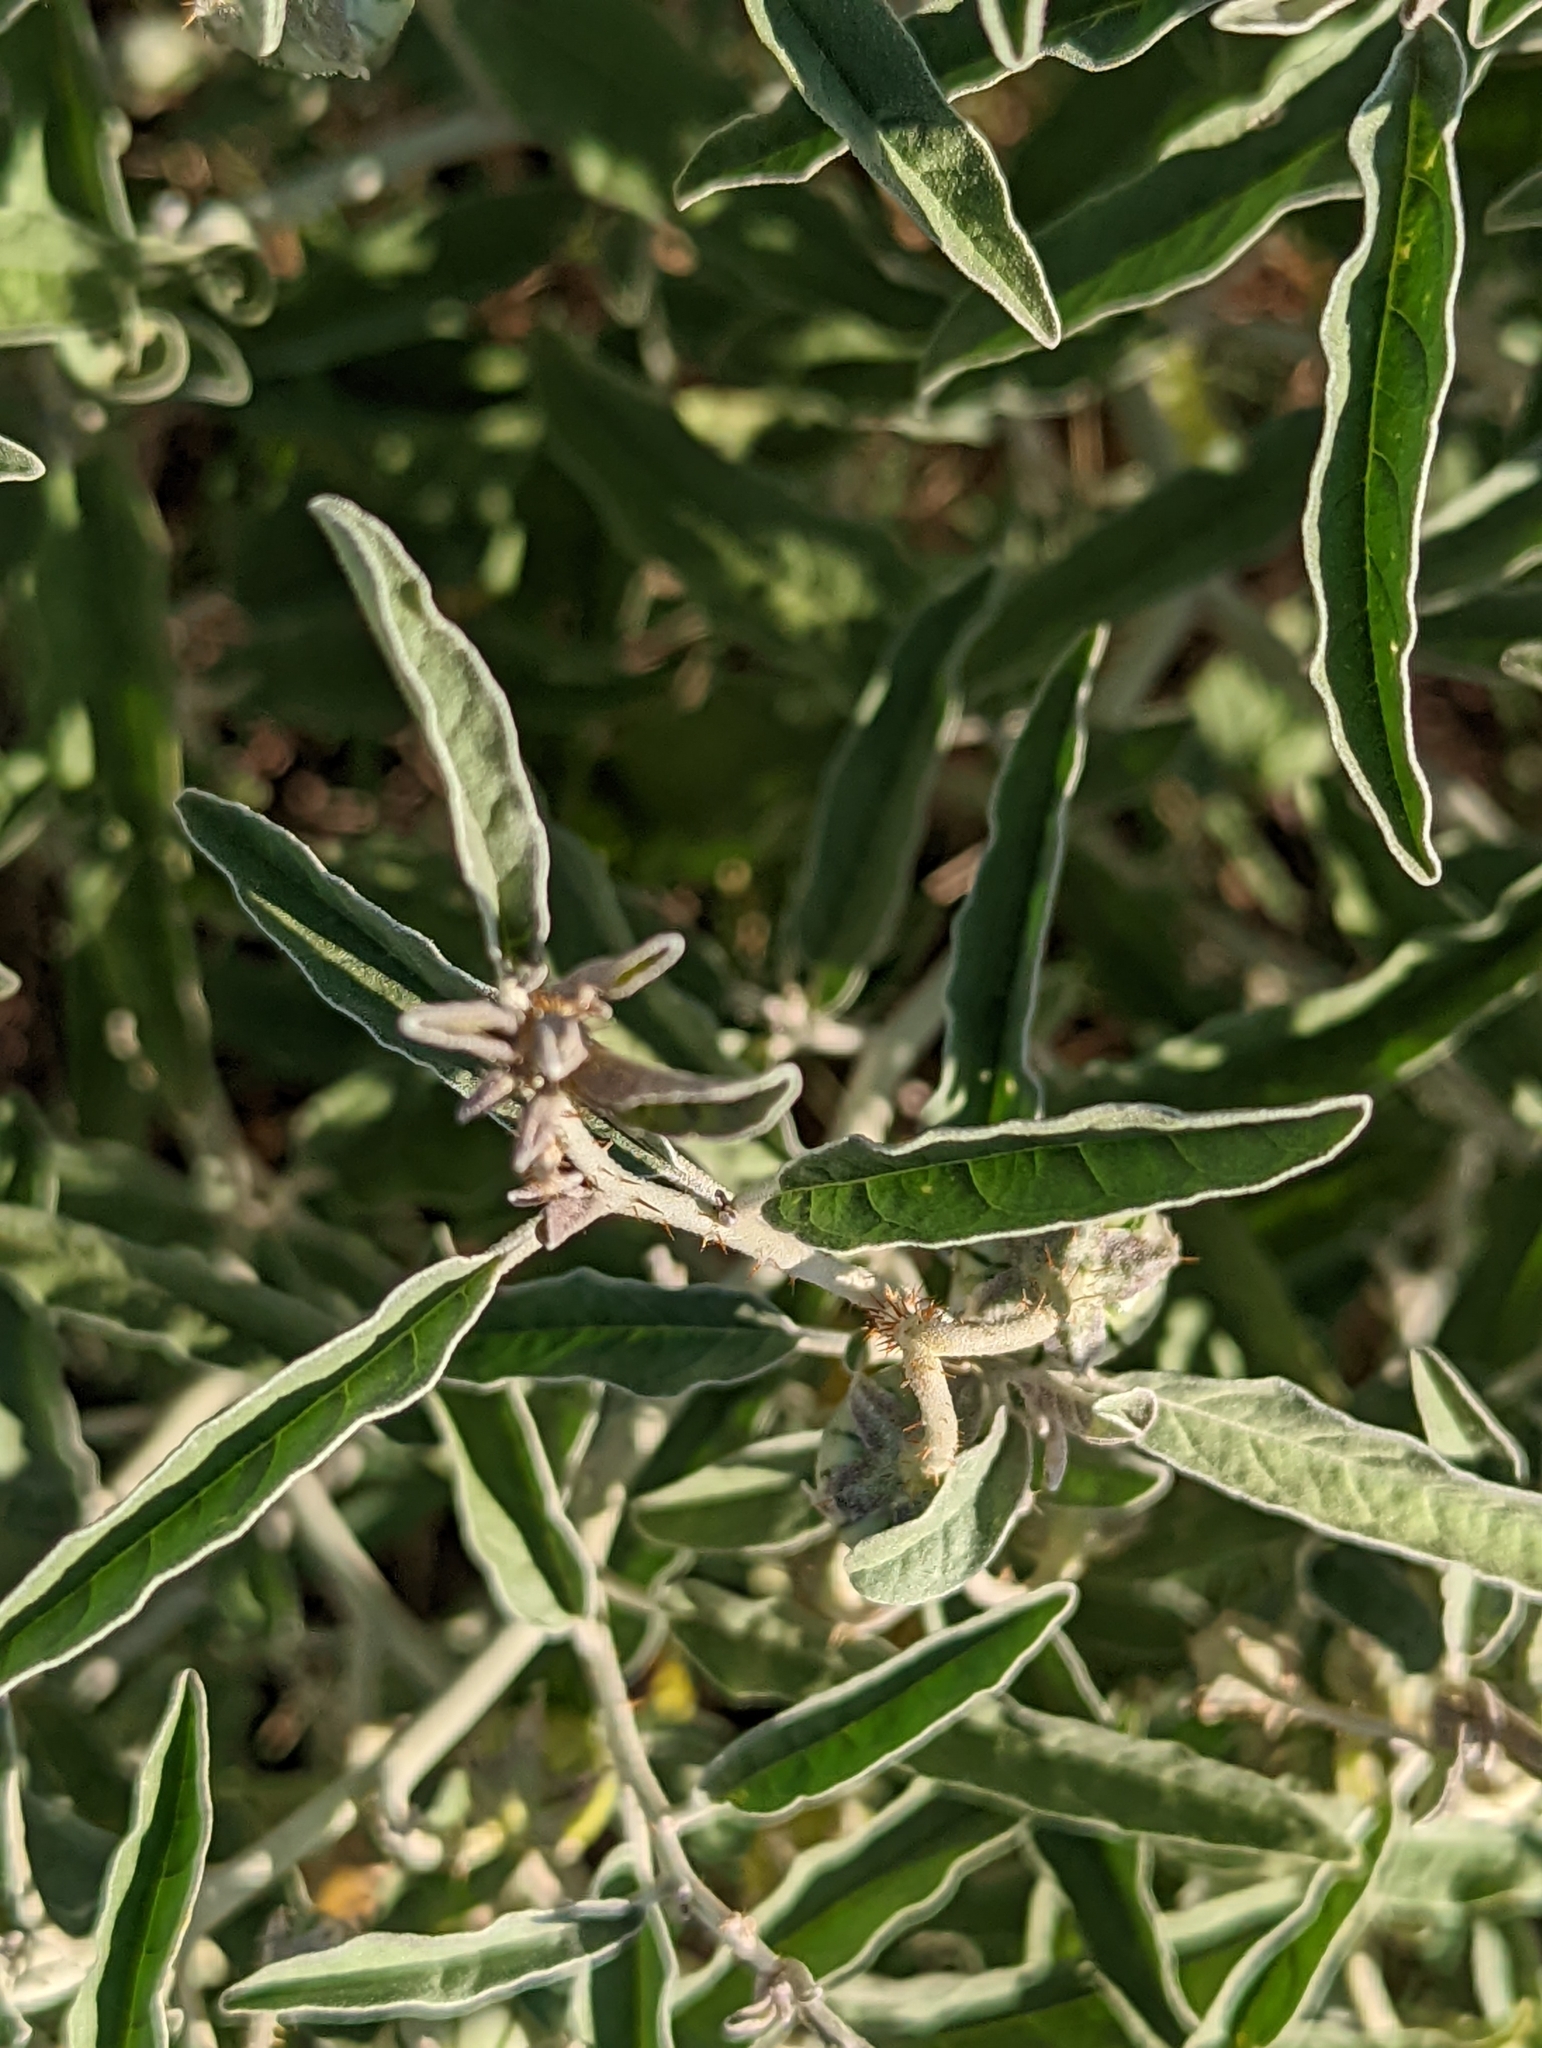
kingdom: Plantae
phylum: Tracheophyta
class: Magnoliopsida
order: Solanales
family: Solanaceae
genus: Solanum
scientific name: Solanum elaeagnifolium
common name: Silverleaf nightshade
